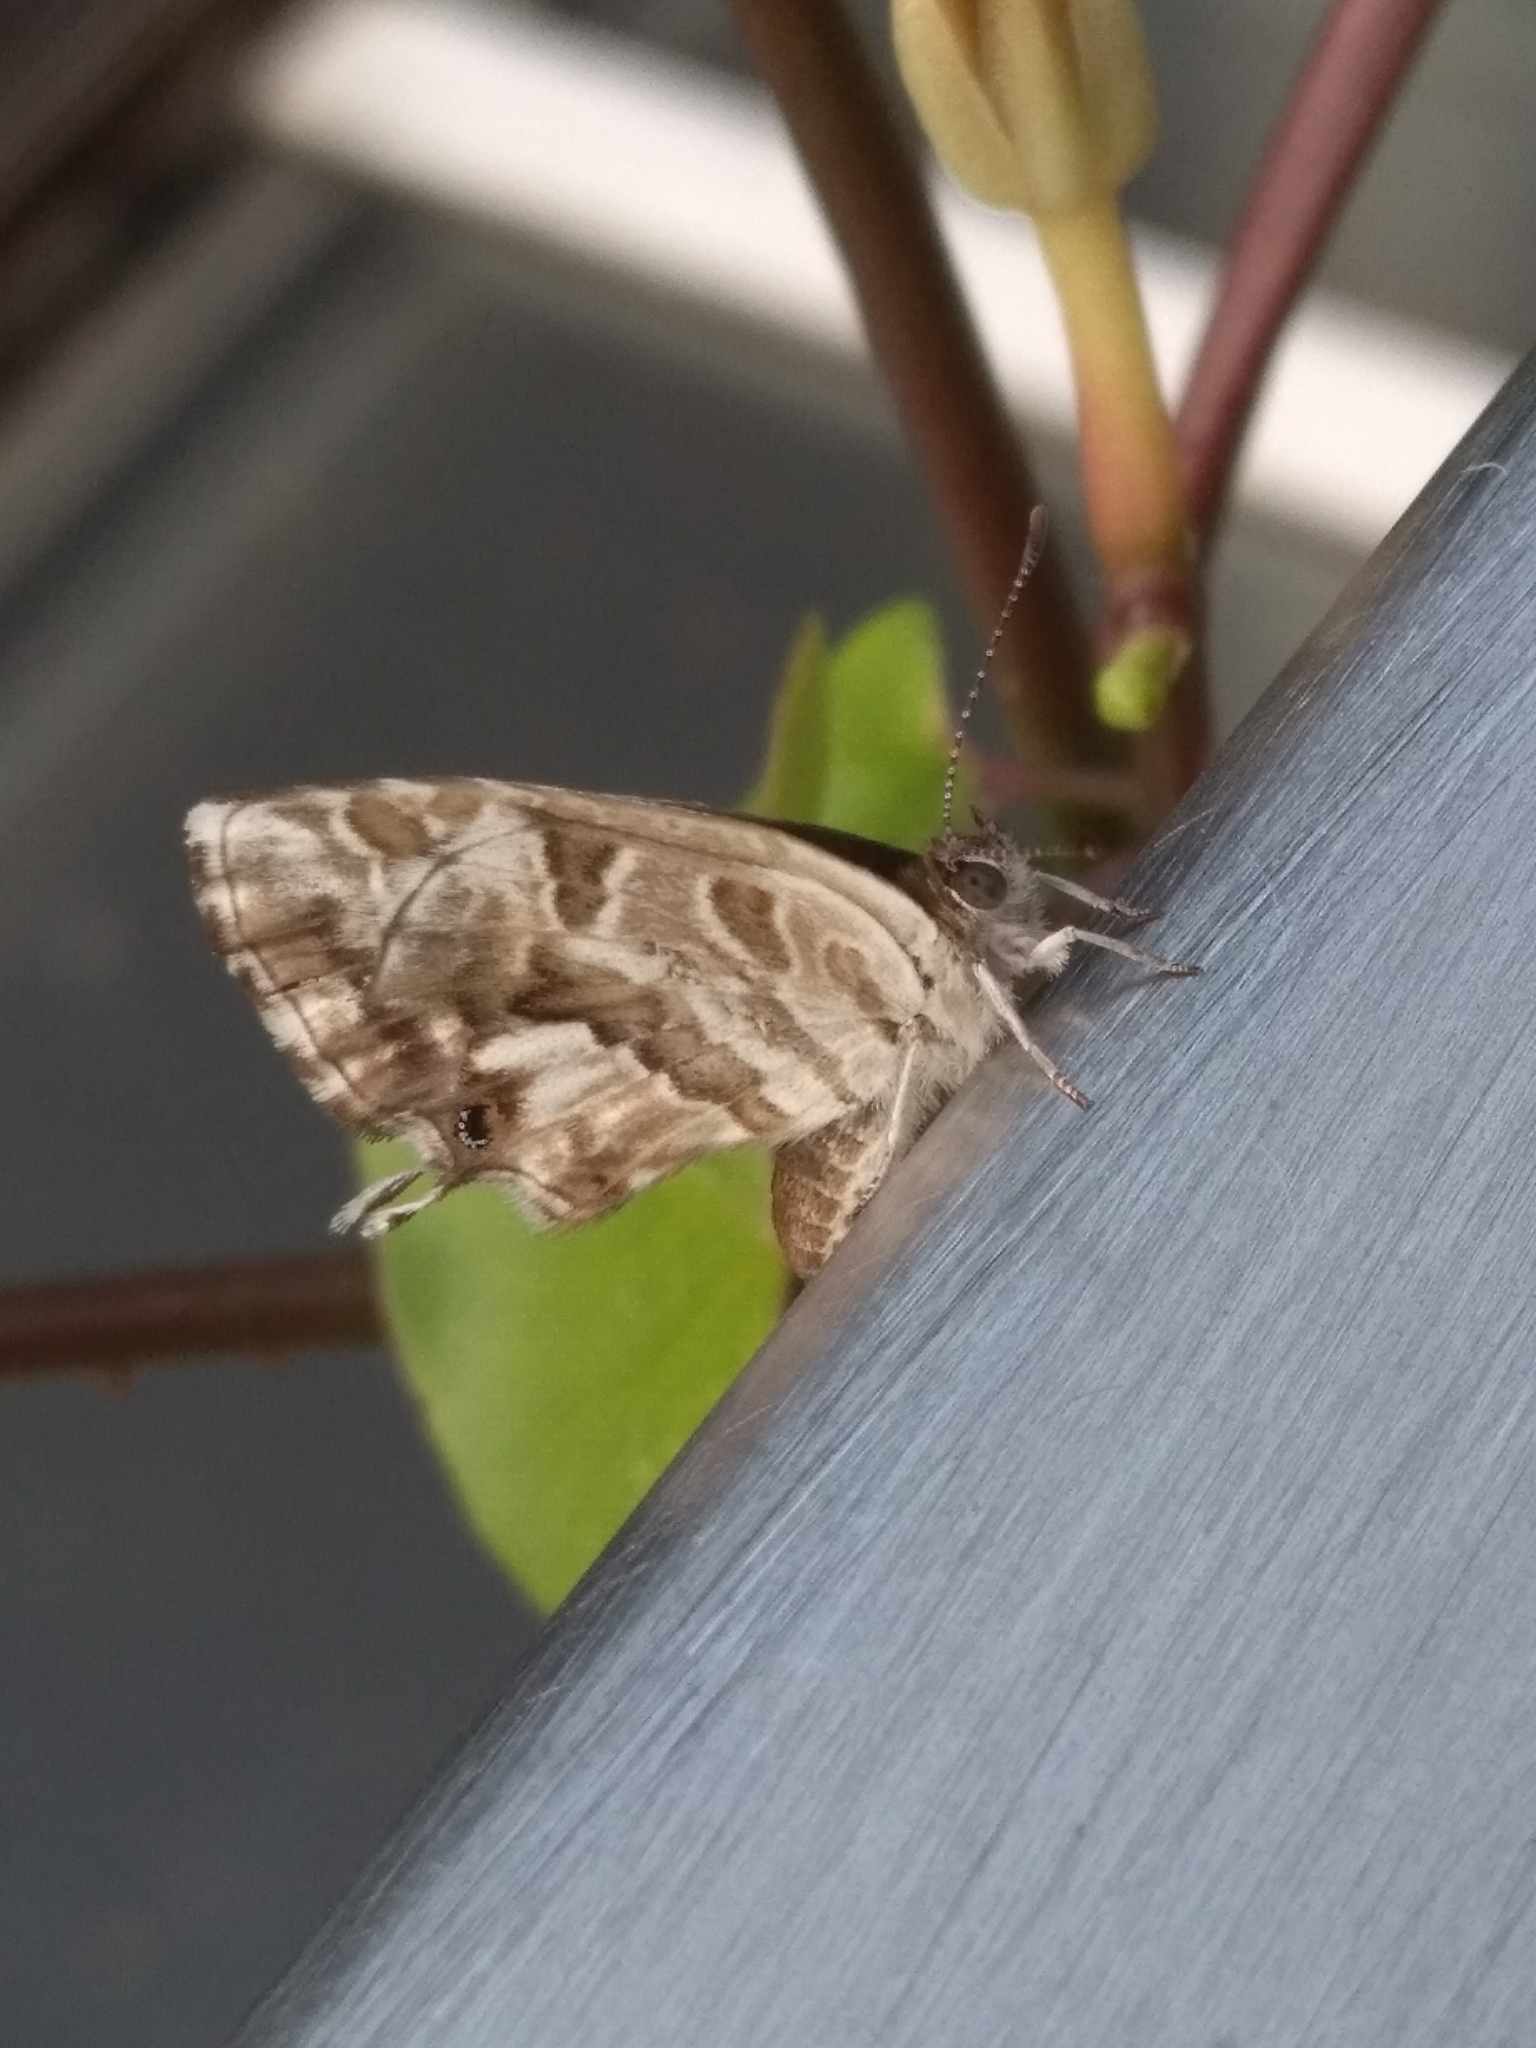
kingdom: Animalia
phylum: Arthropoda
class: Insecta
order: Lepidoptera
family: Lycaenidae
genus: Cacyreus
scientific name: Cacyreus marshalli
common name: Geranium bronze
